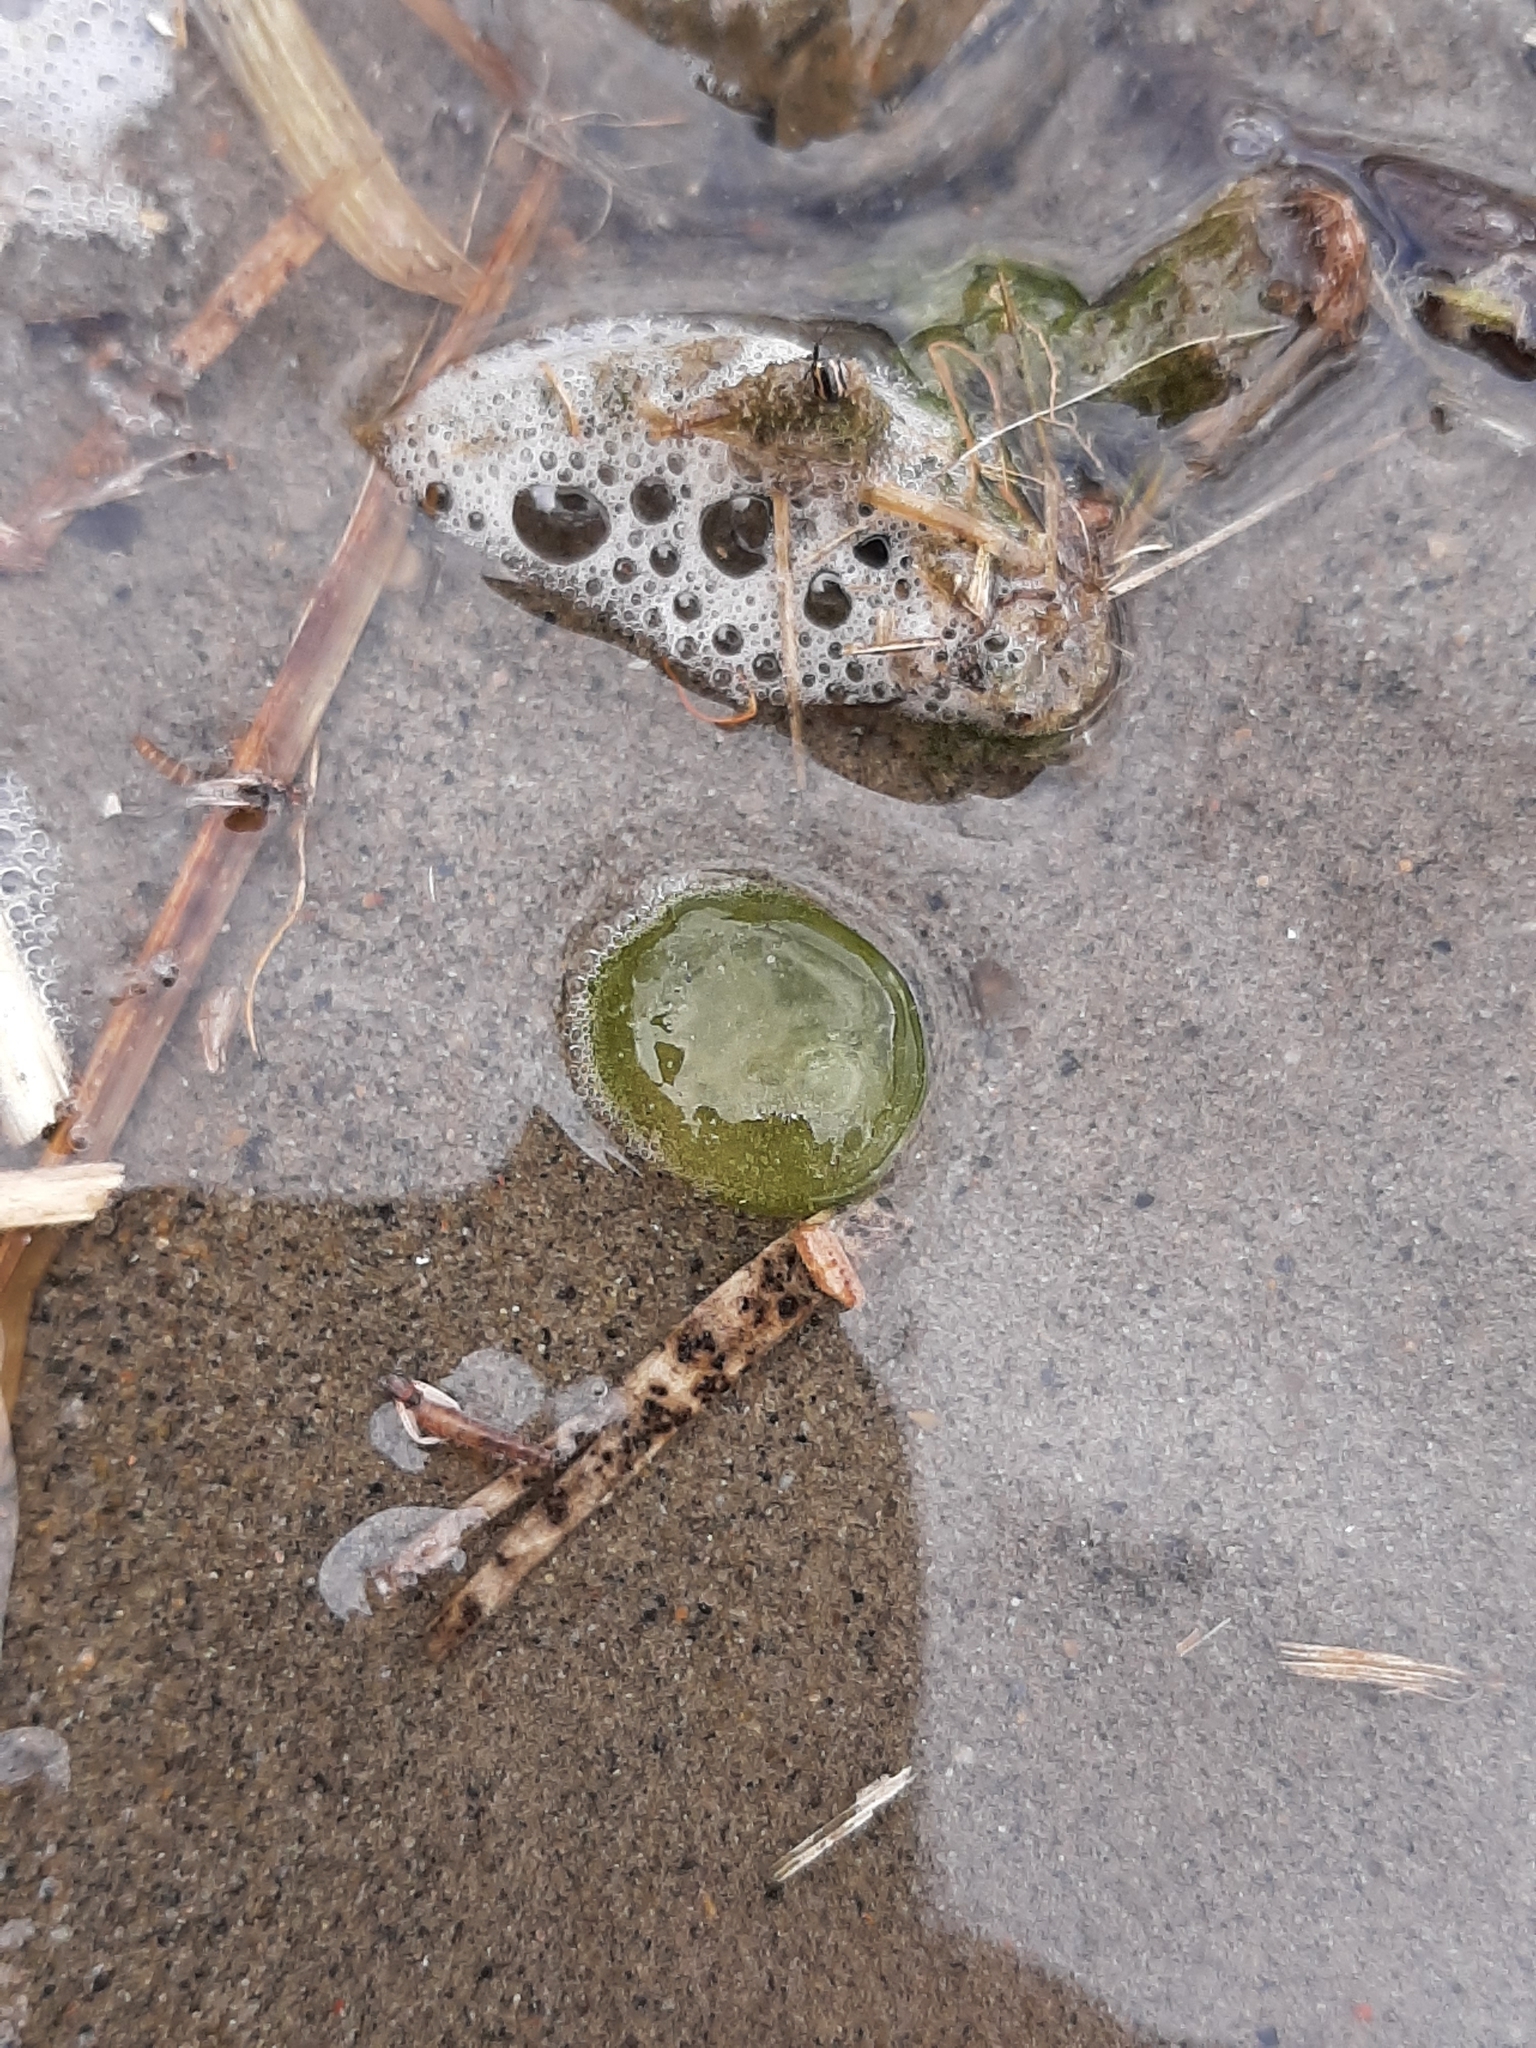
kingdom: Chromista
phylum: Ciliophora
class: Oligohymenophorea
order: Peritrichida
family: Ophrydiidae
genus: Ophrydium
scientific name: Ophrydium
